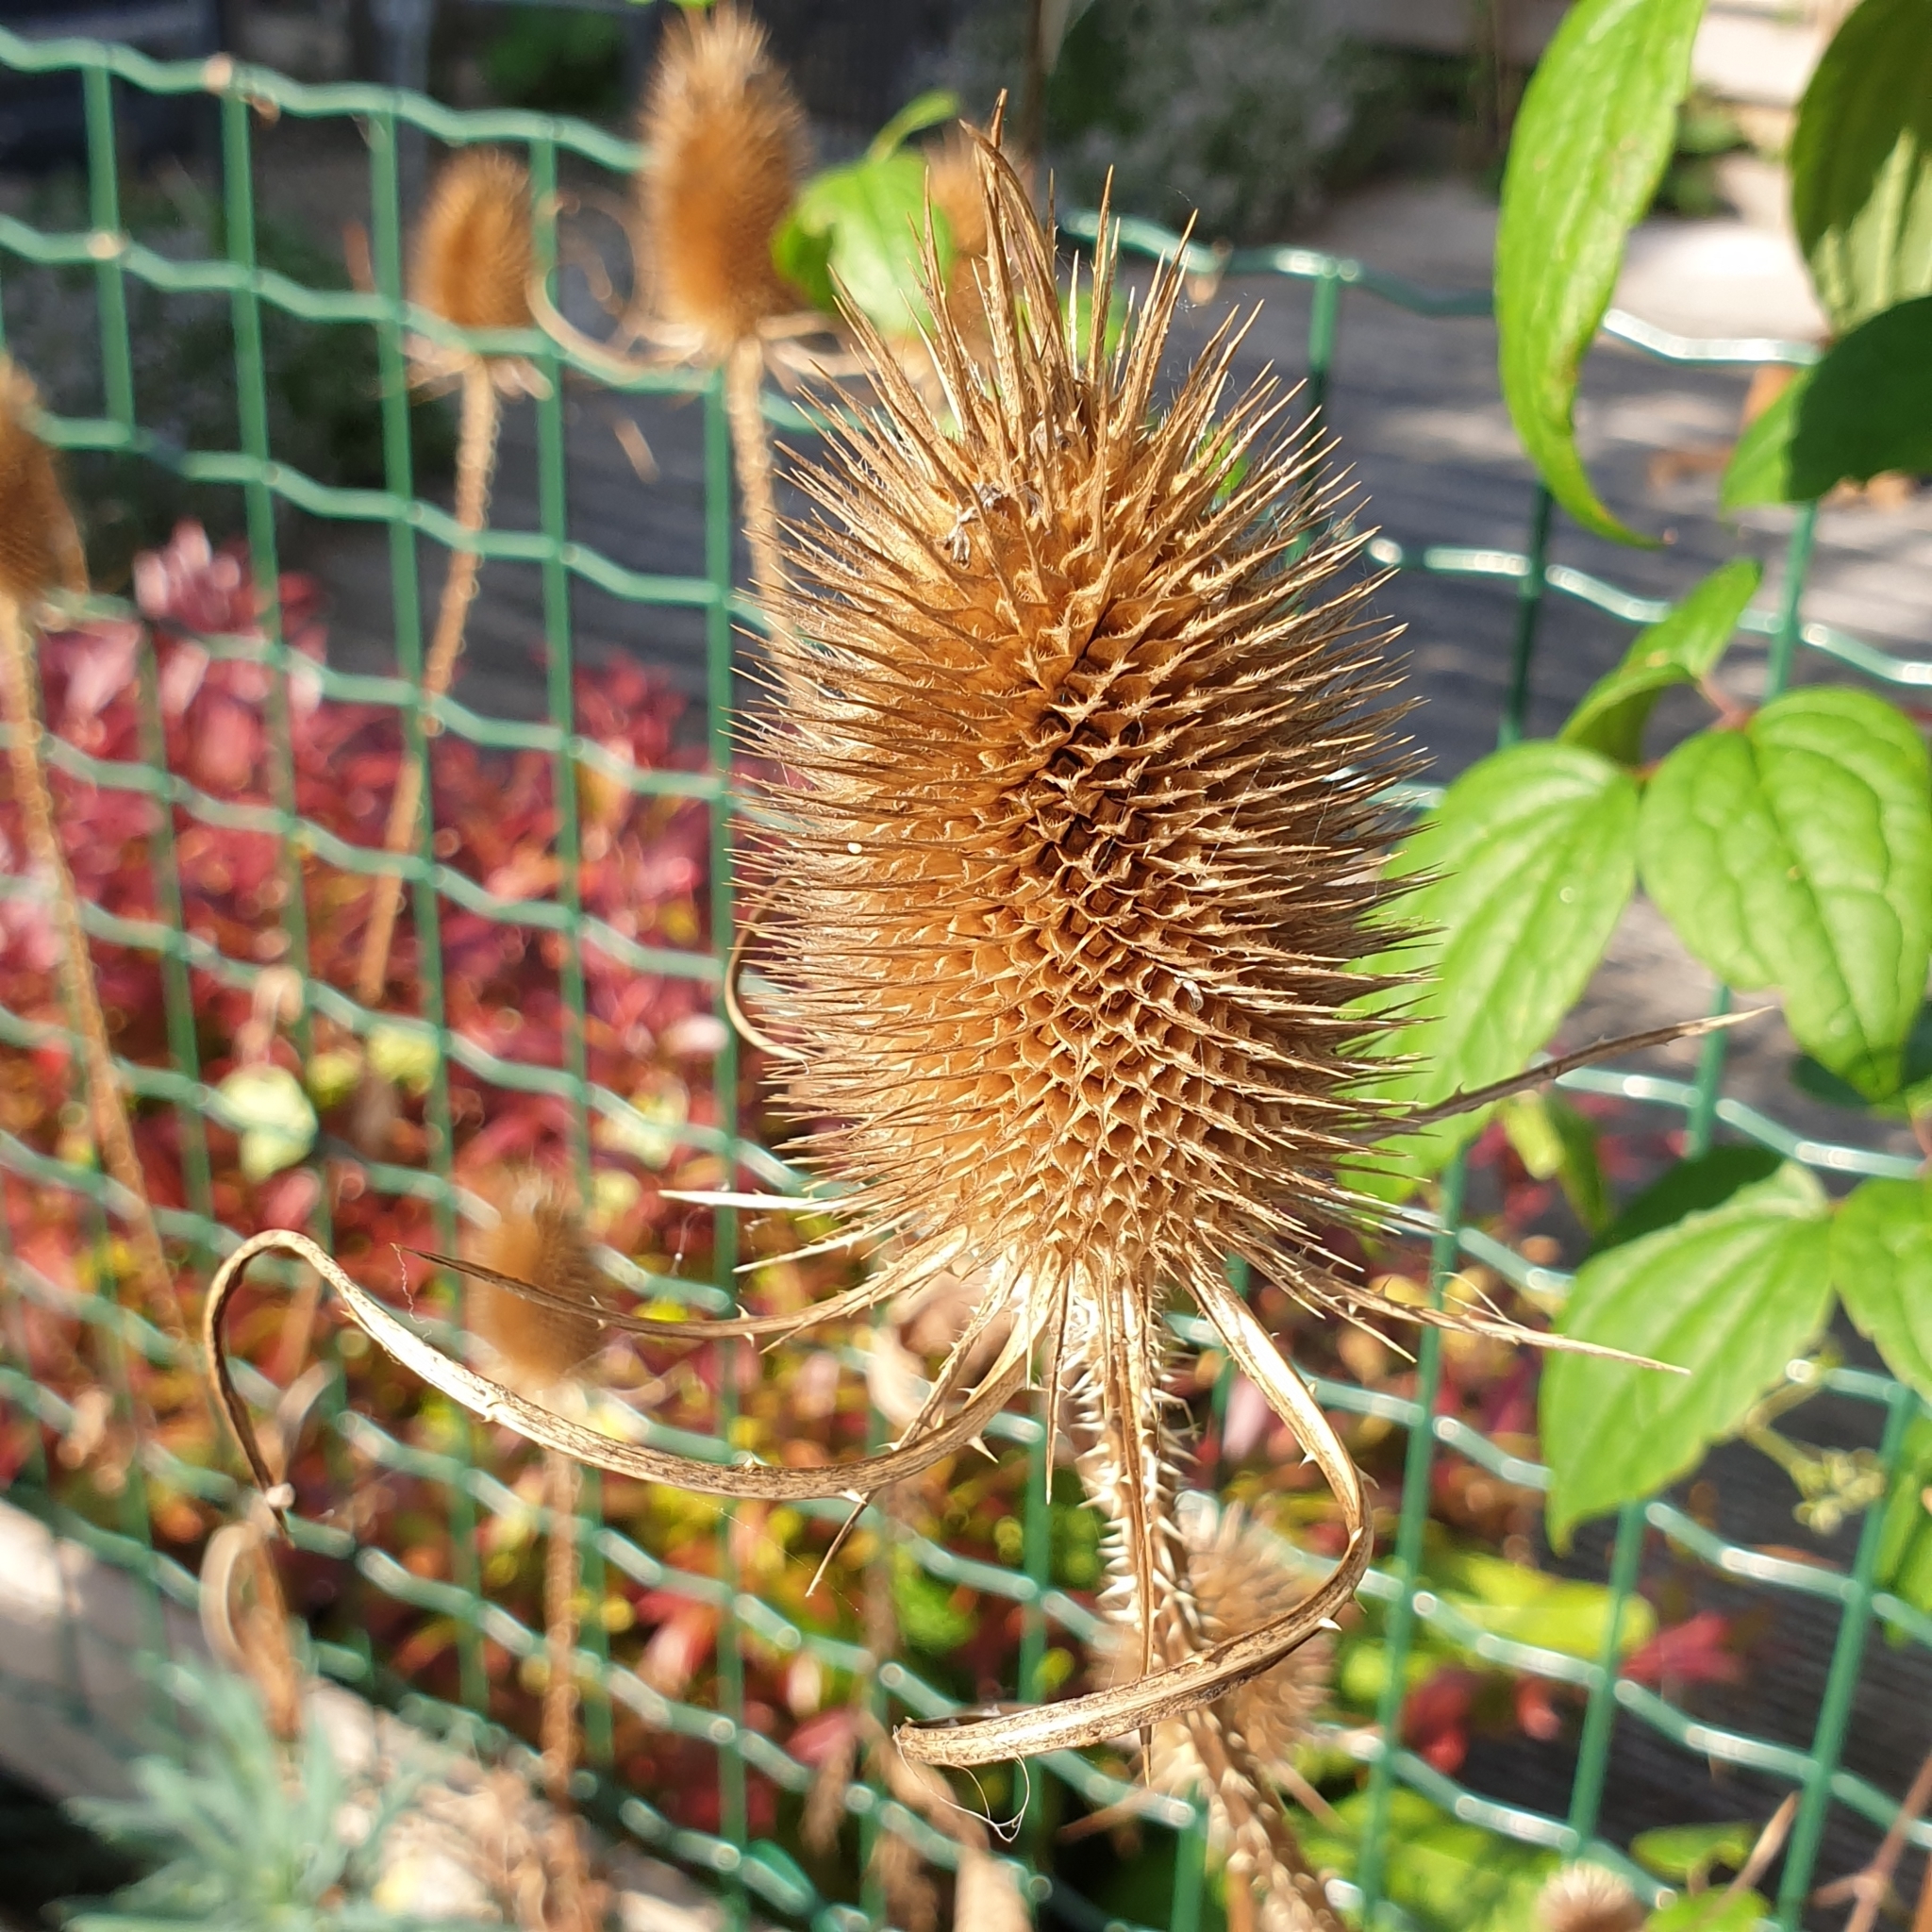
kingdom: Plantae
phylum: Tracheophyta
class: Magnoliopsida
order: Dipsacales
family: Caprifoliaceae
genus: Dipsacus
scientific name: Dipsacus fullonum
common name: Teasel
